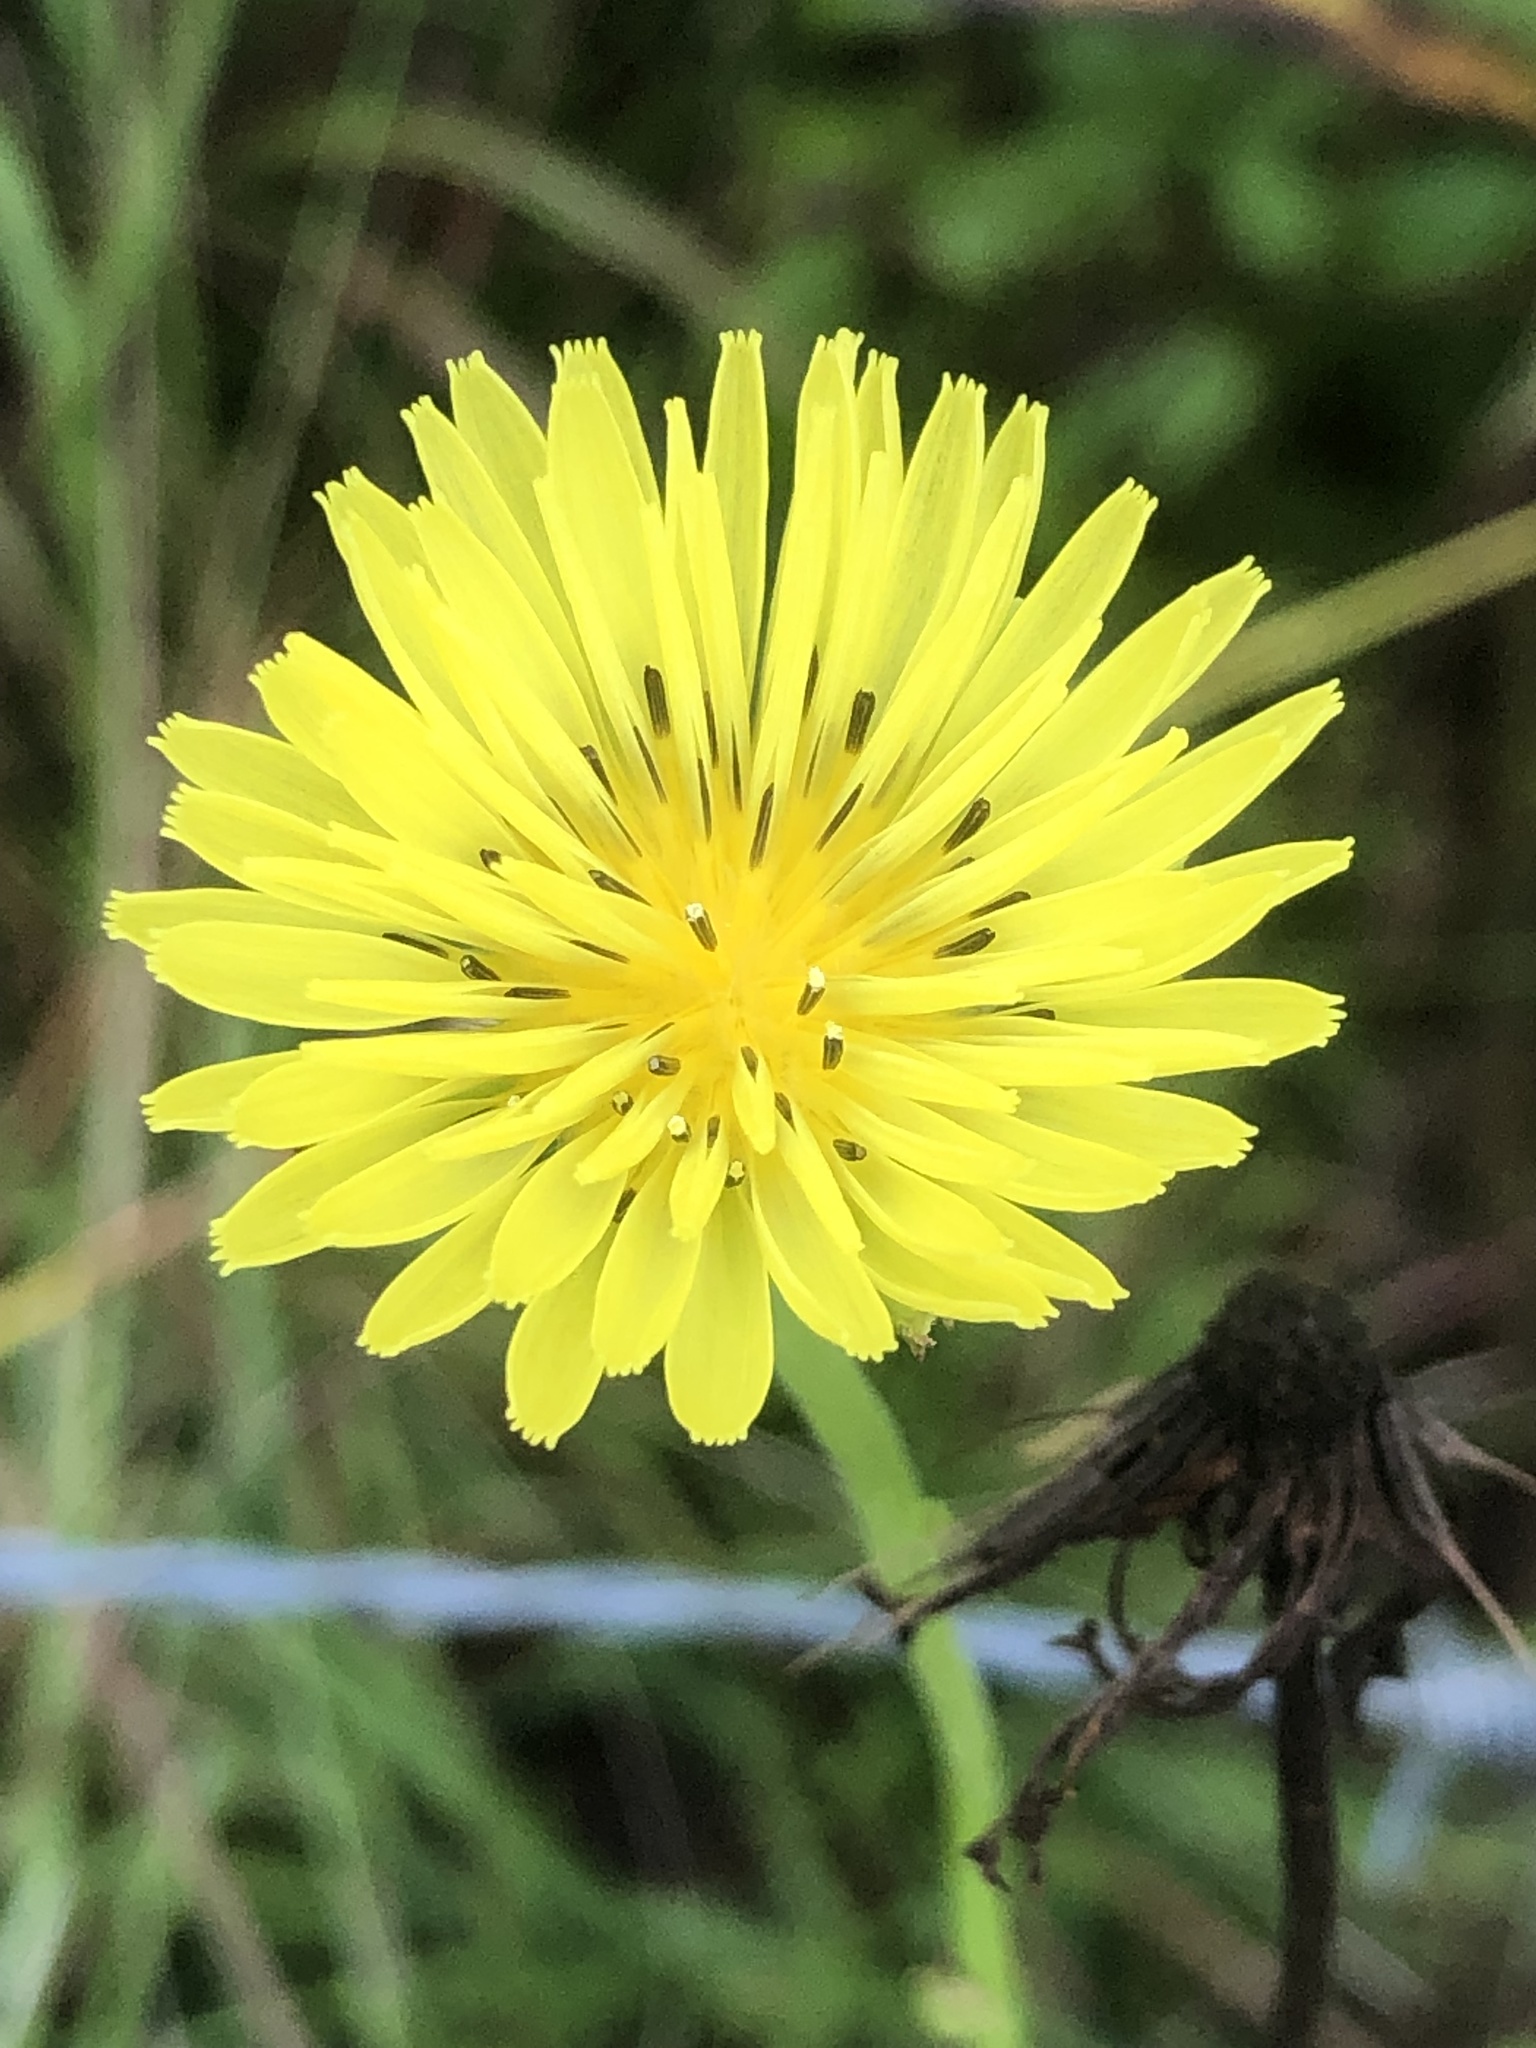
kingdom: Plantae
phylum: Tracheophyta
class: Magnoliopsida
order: Asterales
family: Asteraceae
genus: Pyrrhopappus
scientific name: Pyrrhopappus carolinianus
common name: Carolina desert-chicory
